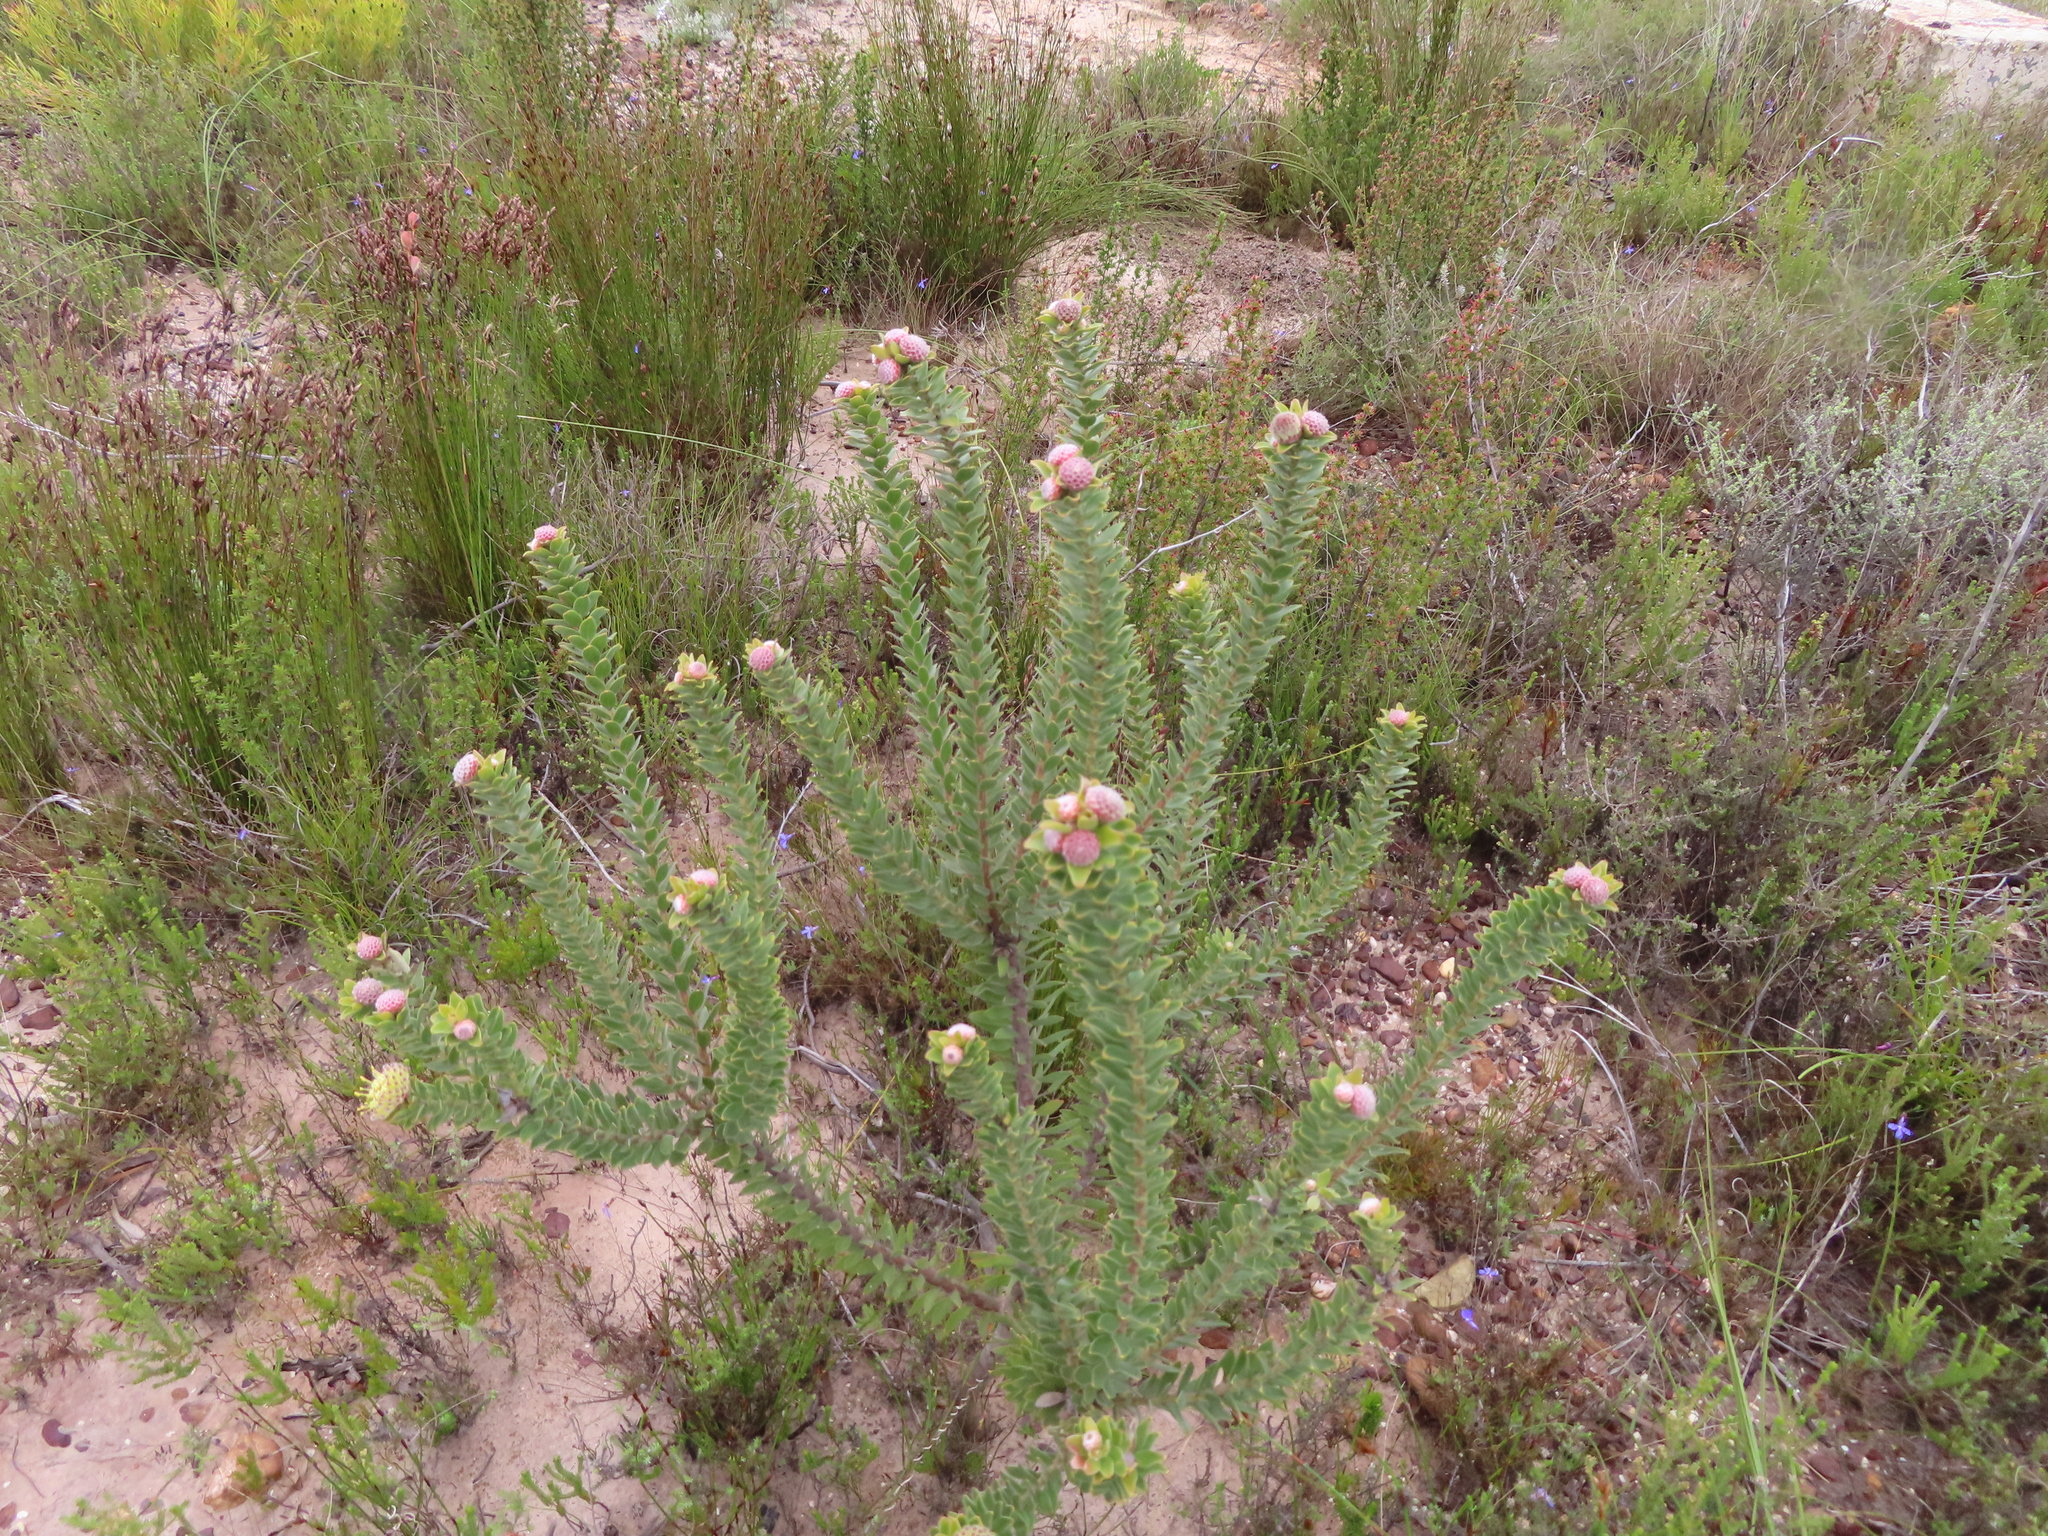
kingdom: Plantae
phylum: Tracheophyta
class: Magnoliopsida
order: Proteales
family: Proteaceae
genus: Leucospermum
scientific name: Leucospermum truncatulum
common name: Oval-leaf pincushion
